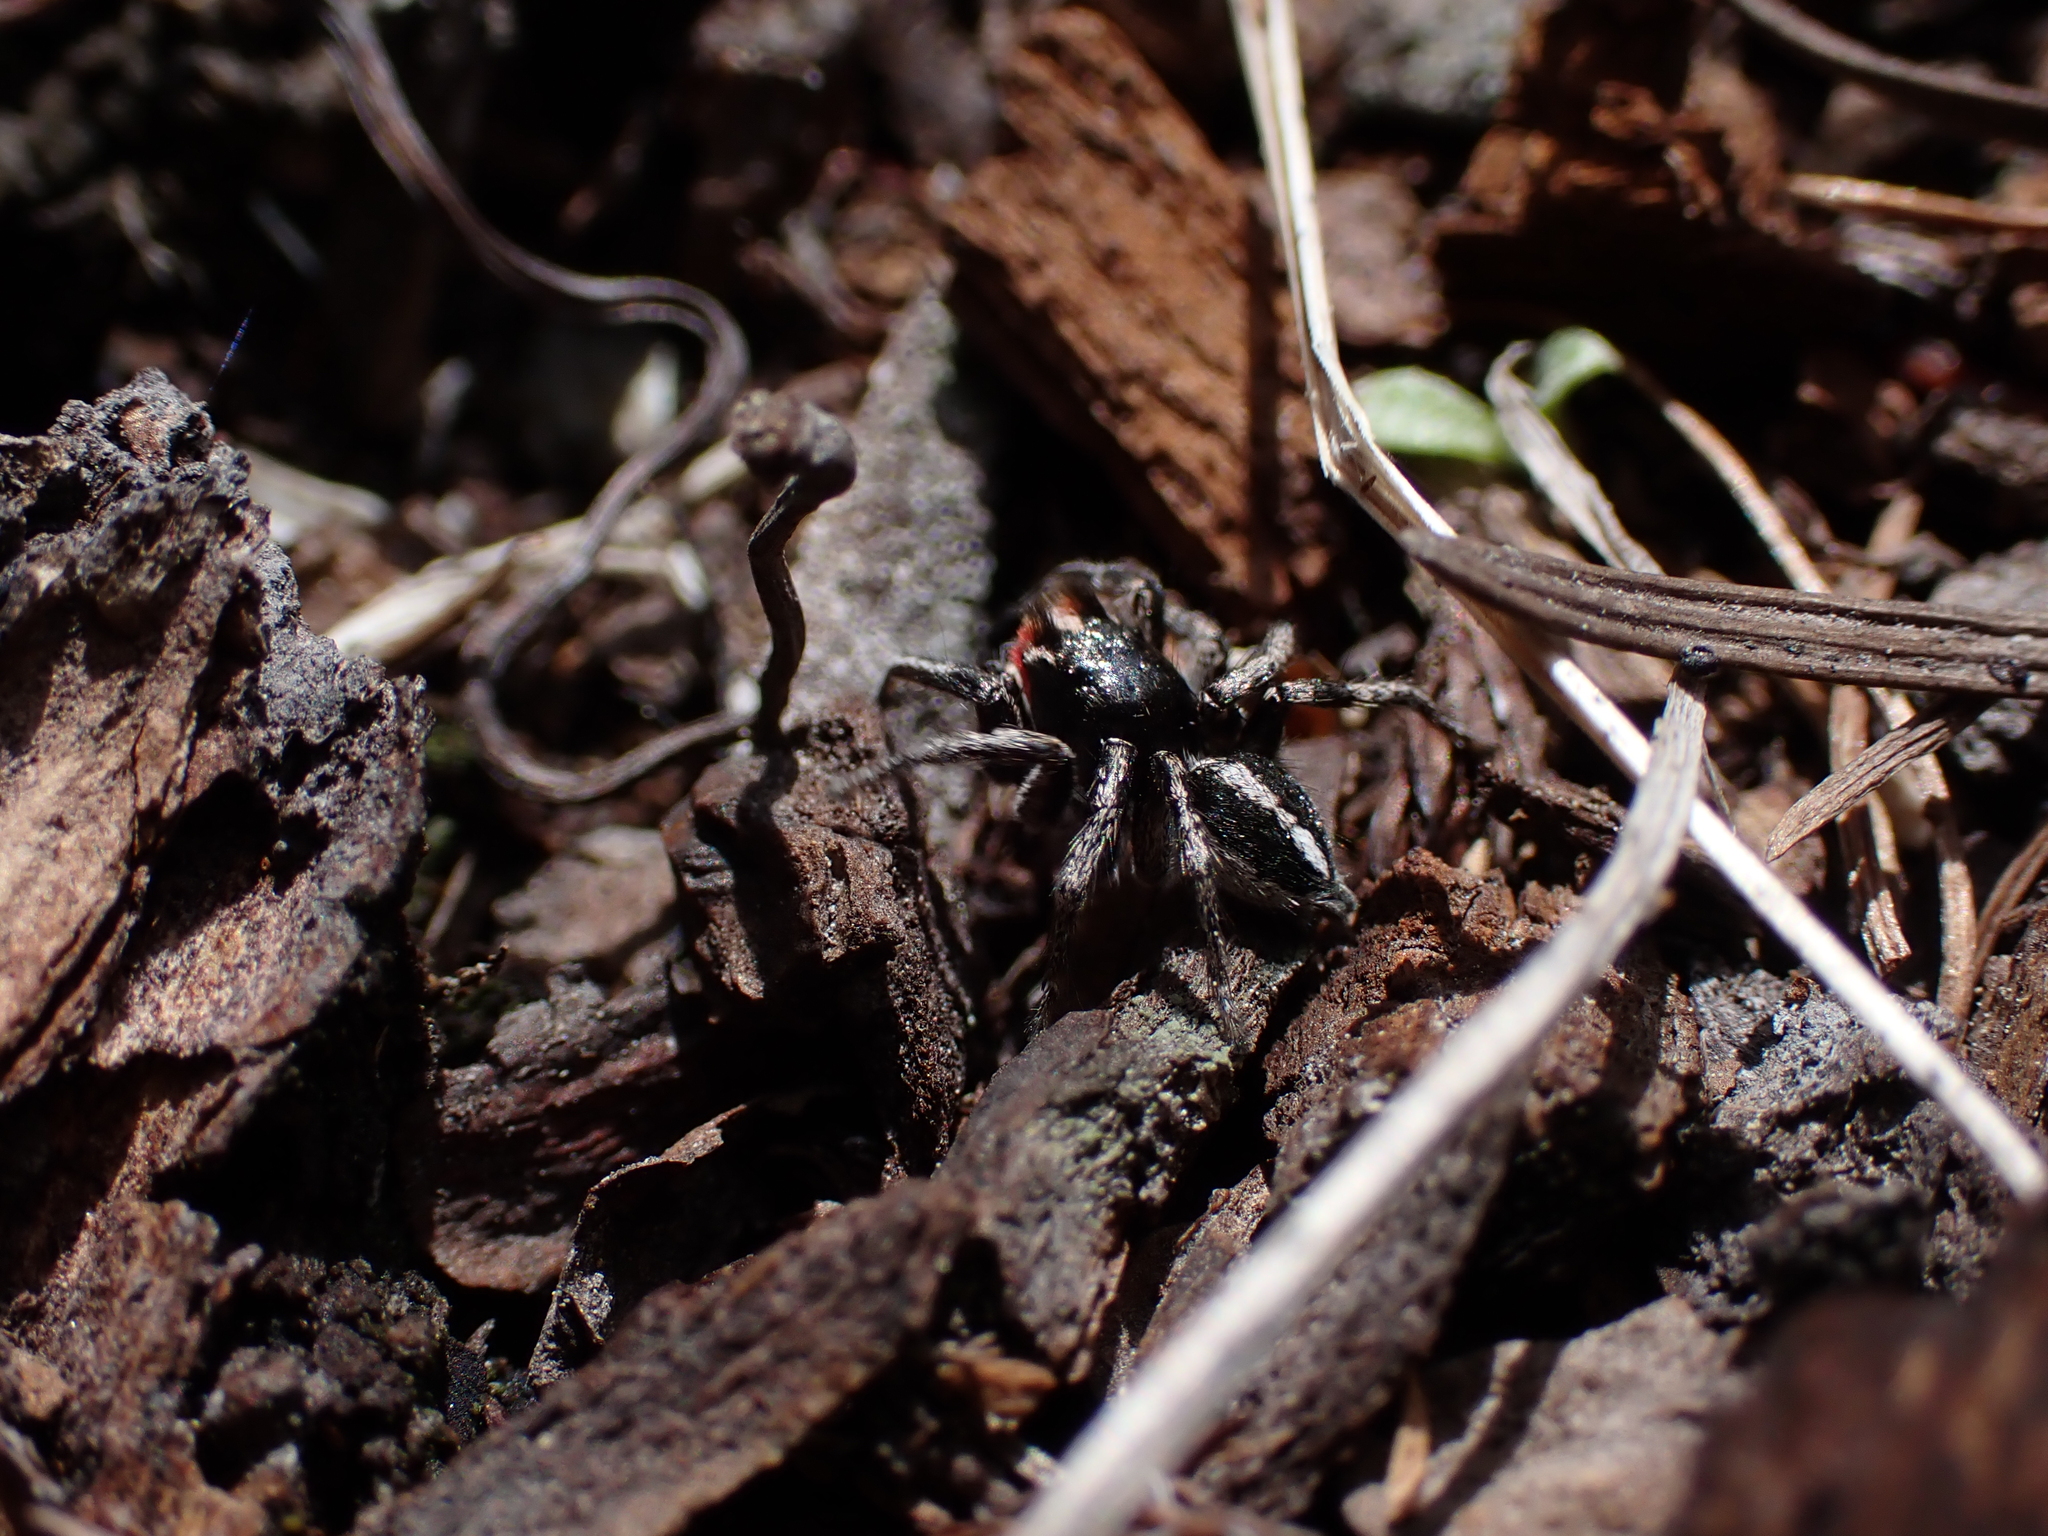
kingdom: Animalia
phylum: Arthropoda
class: Arachnida
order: Araneae
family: Salticidae
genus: Habronattus
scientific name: Habronattus sansoni
